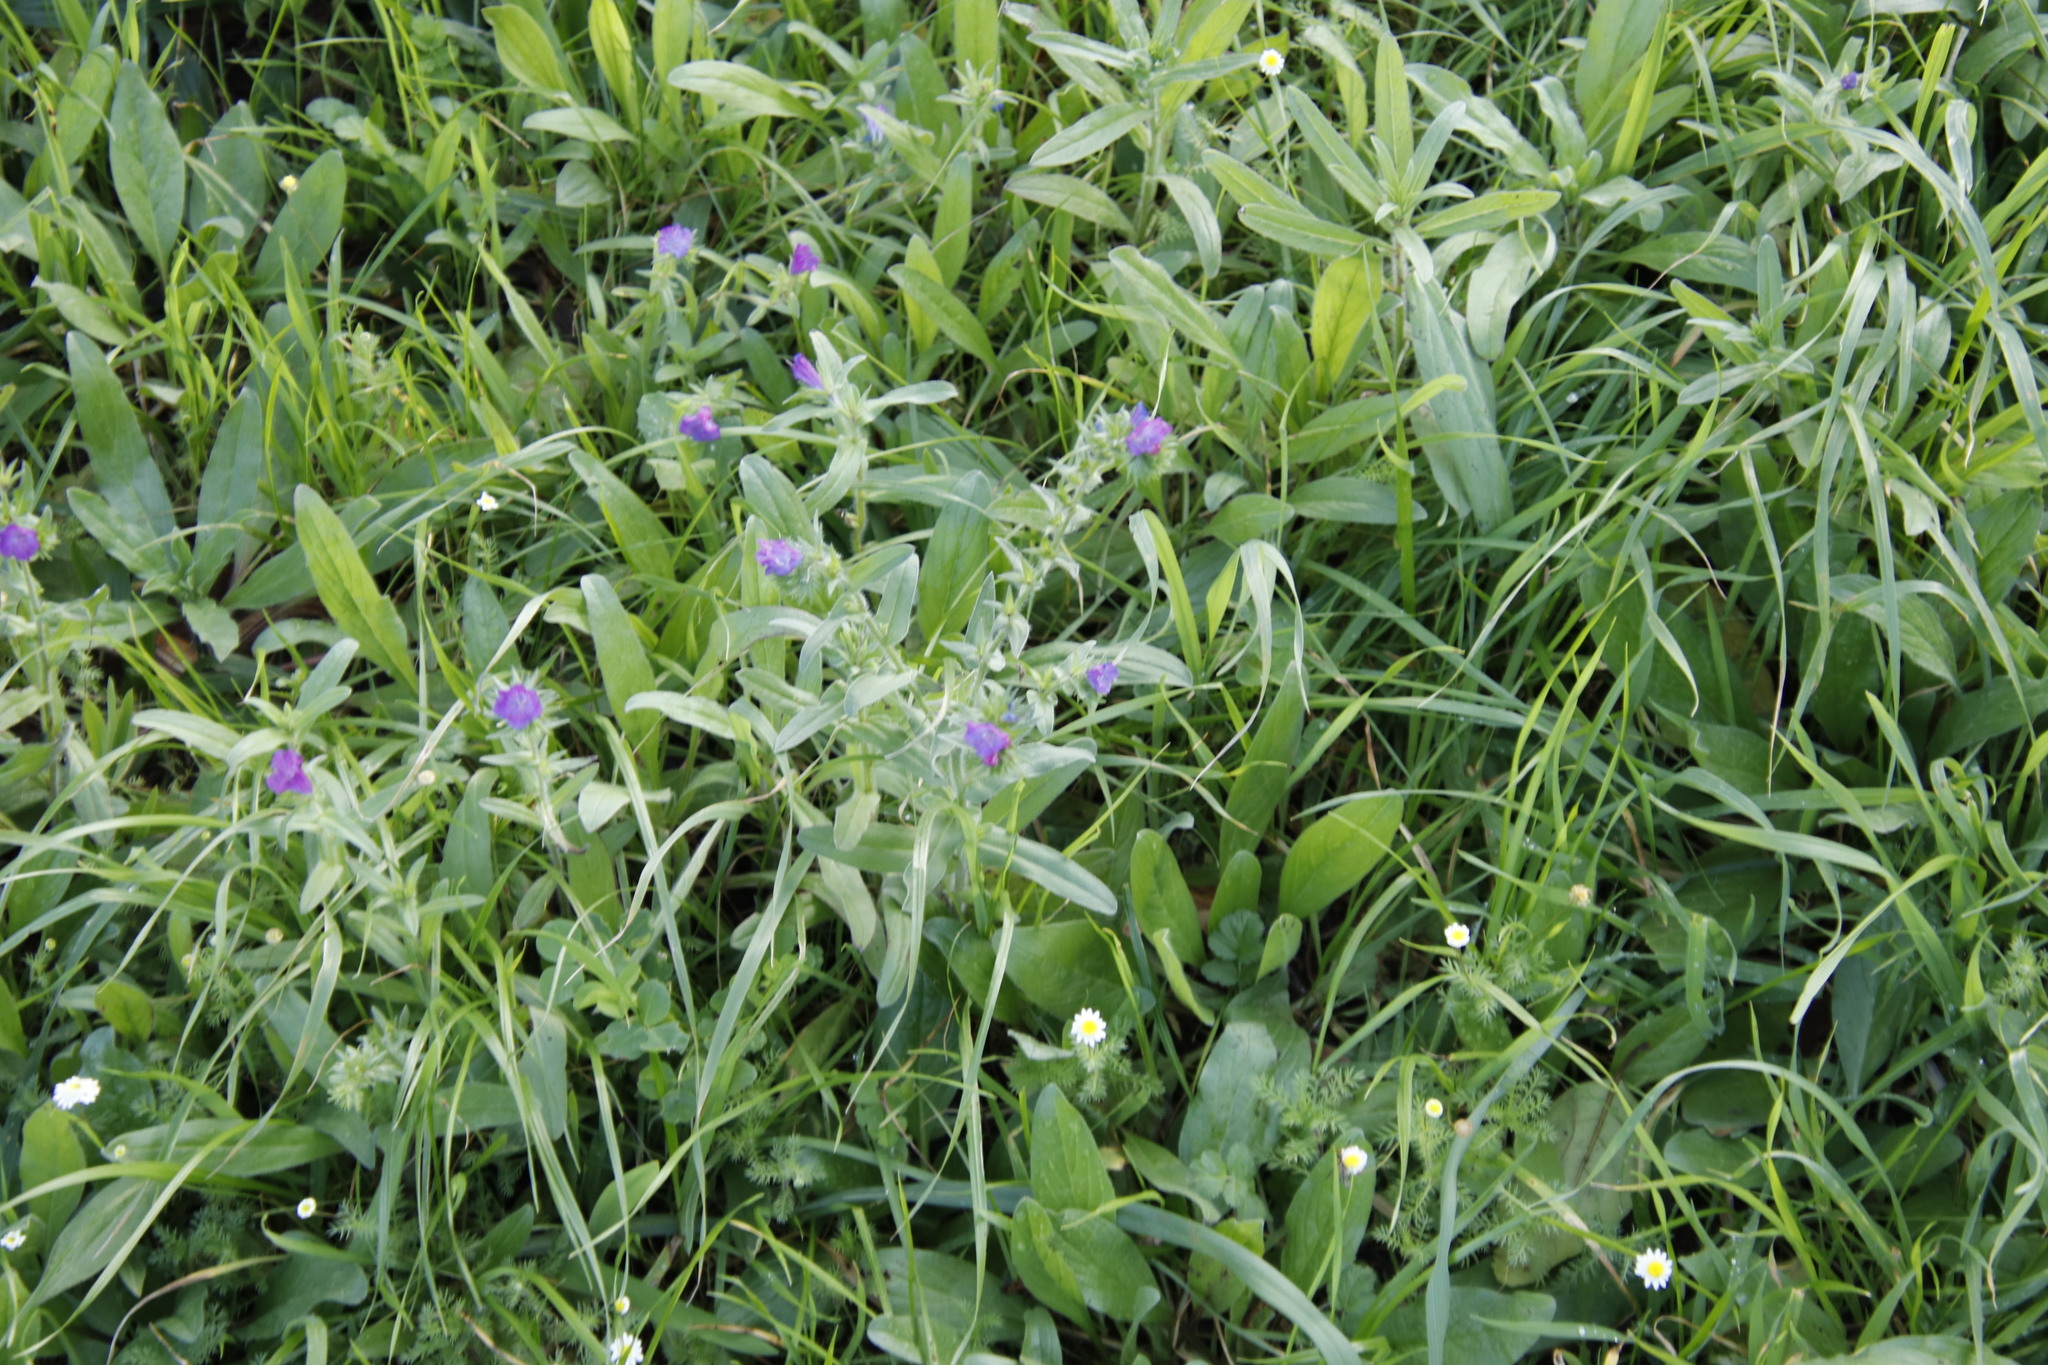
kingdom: Plantae
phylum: Tracheophyta
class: Magnoliopsida
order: Boraginales
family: Boraginaceae
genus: Echium
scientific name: Echium plantagineum
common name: Purple viper's-bugloss
